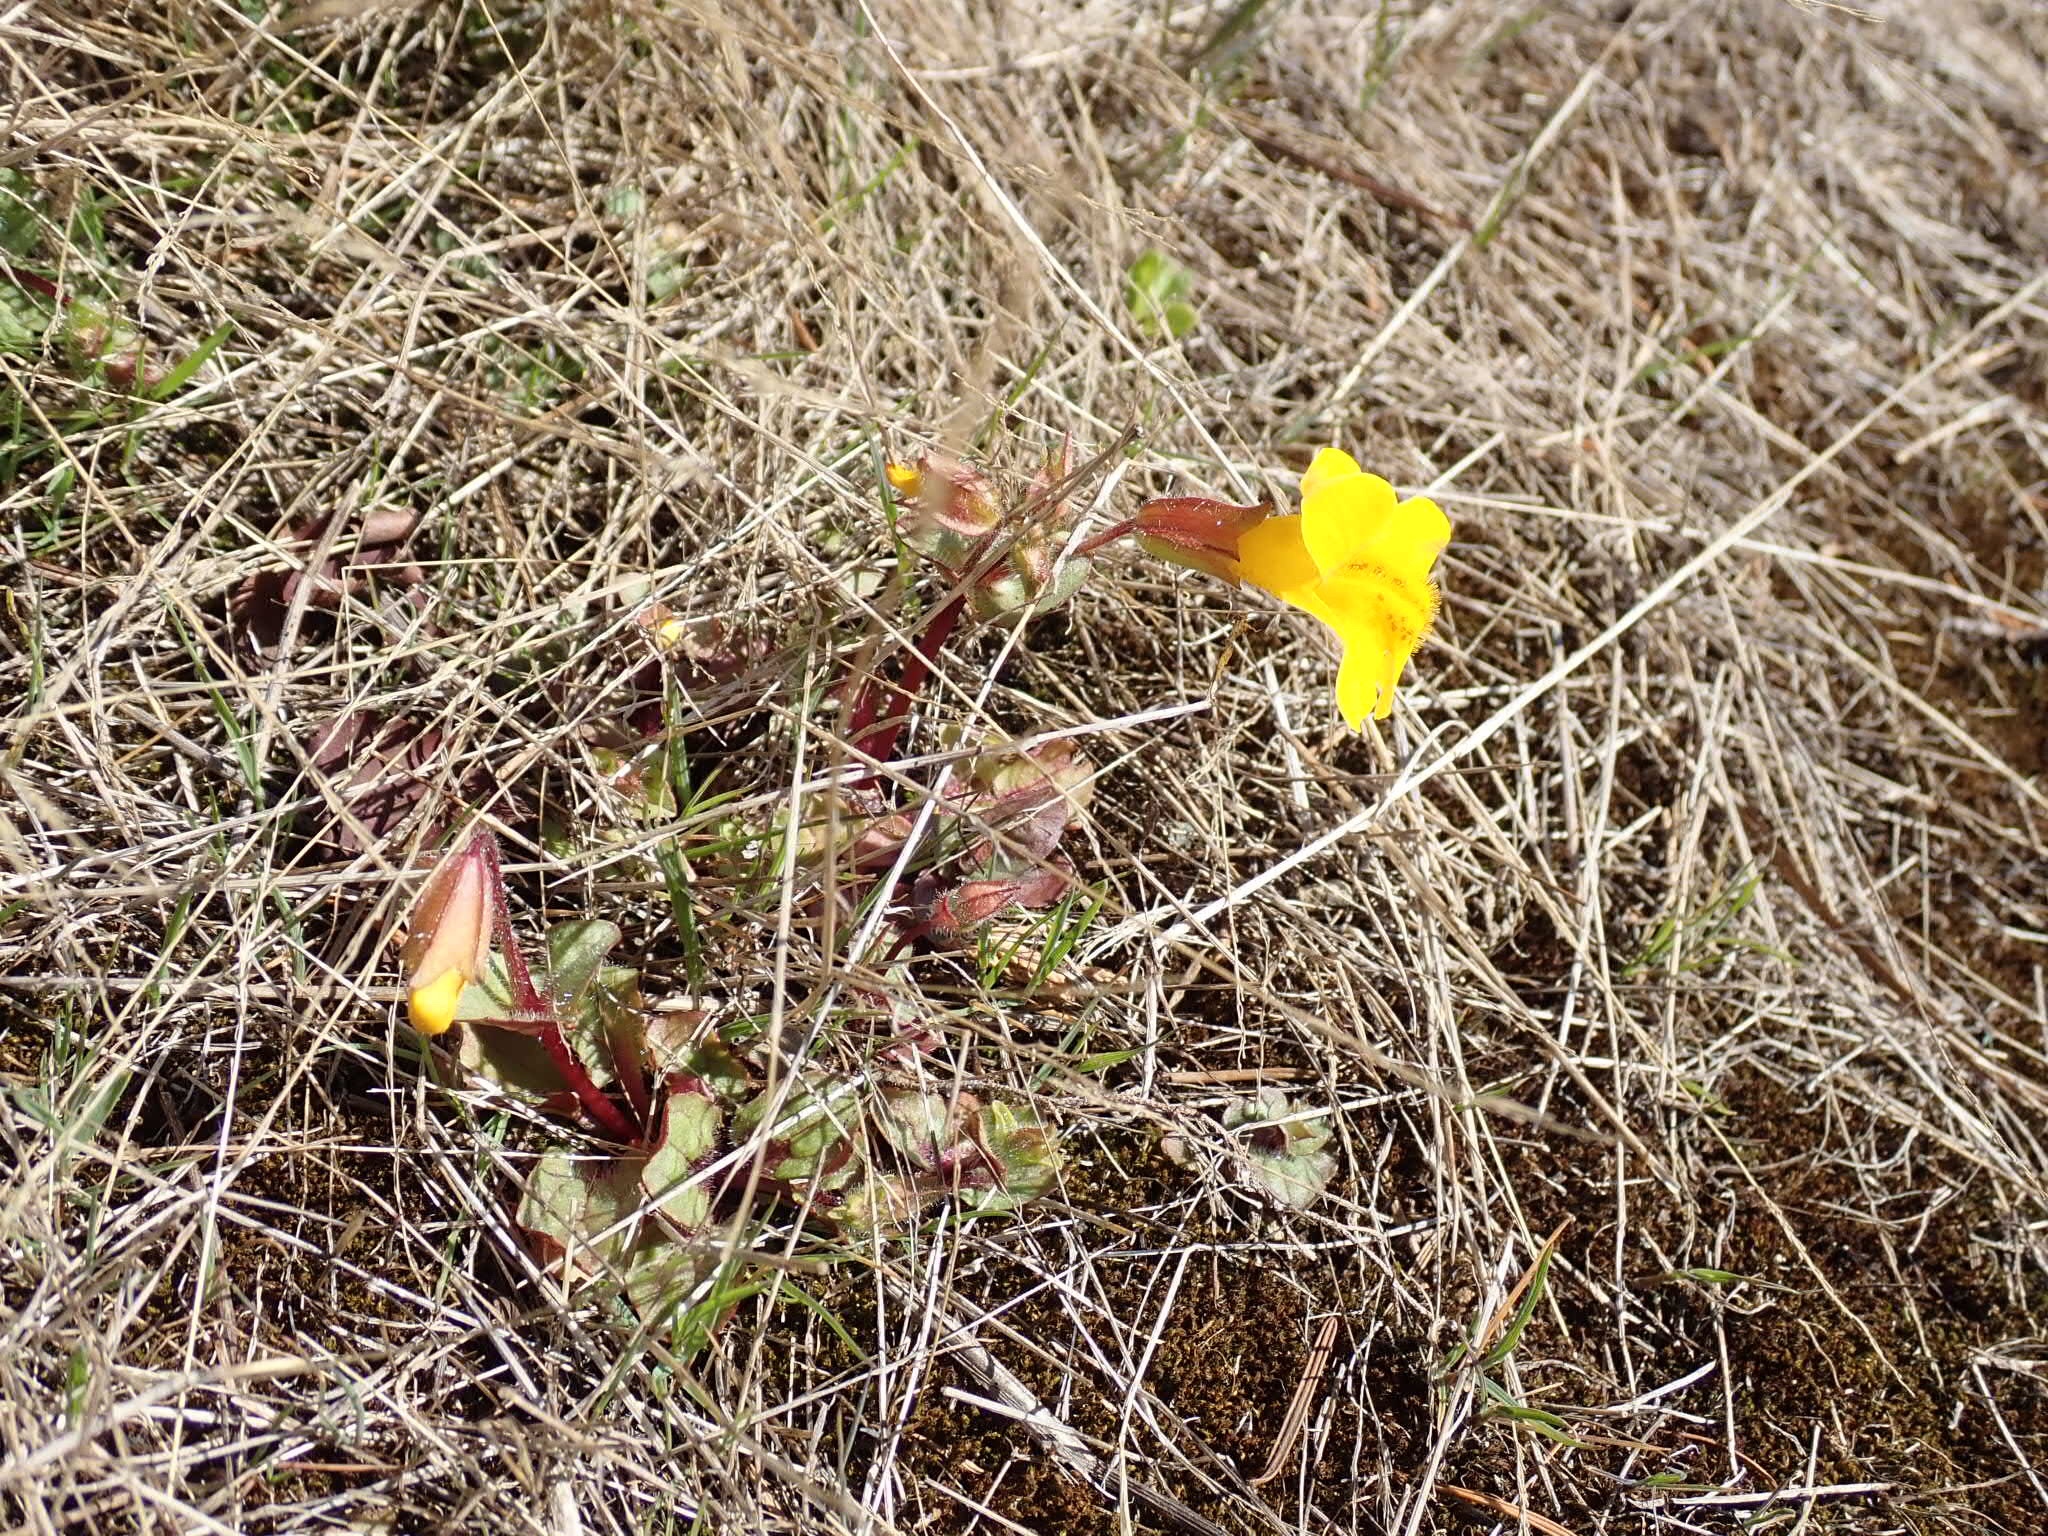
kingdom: Plantae
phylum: Tracheophyta
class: Magnoliopsida
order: Lamiales
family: Phrymaceae
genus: Erythranthe
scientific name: Erythranthe guttata
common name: Monkeyflower
